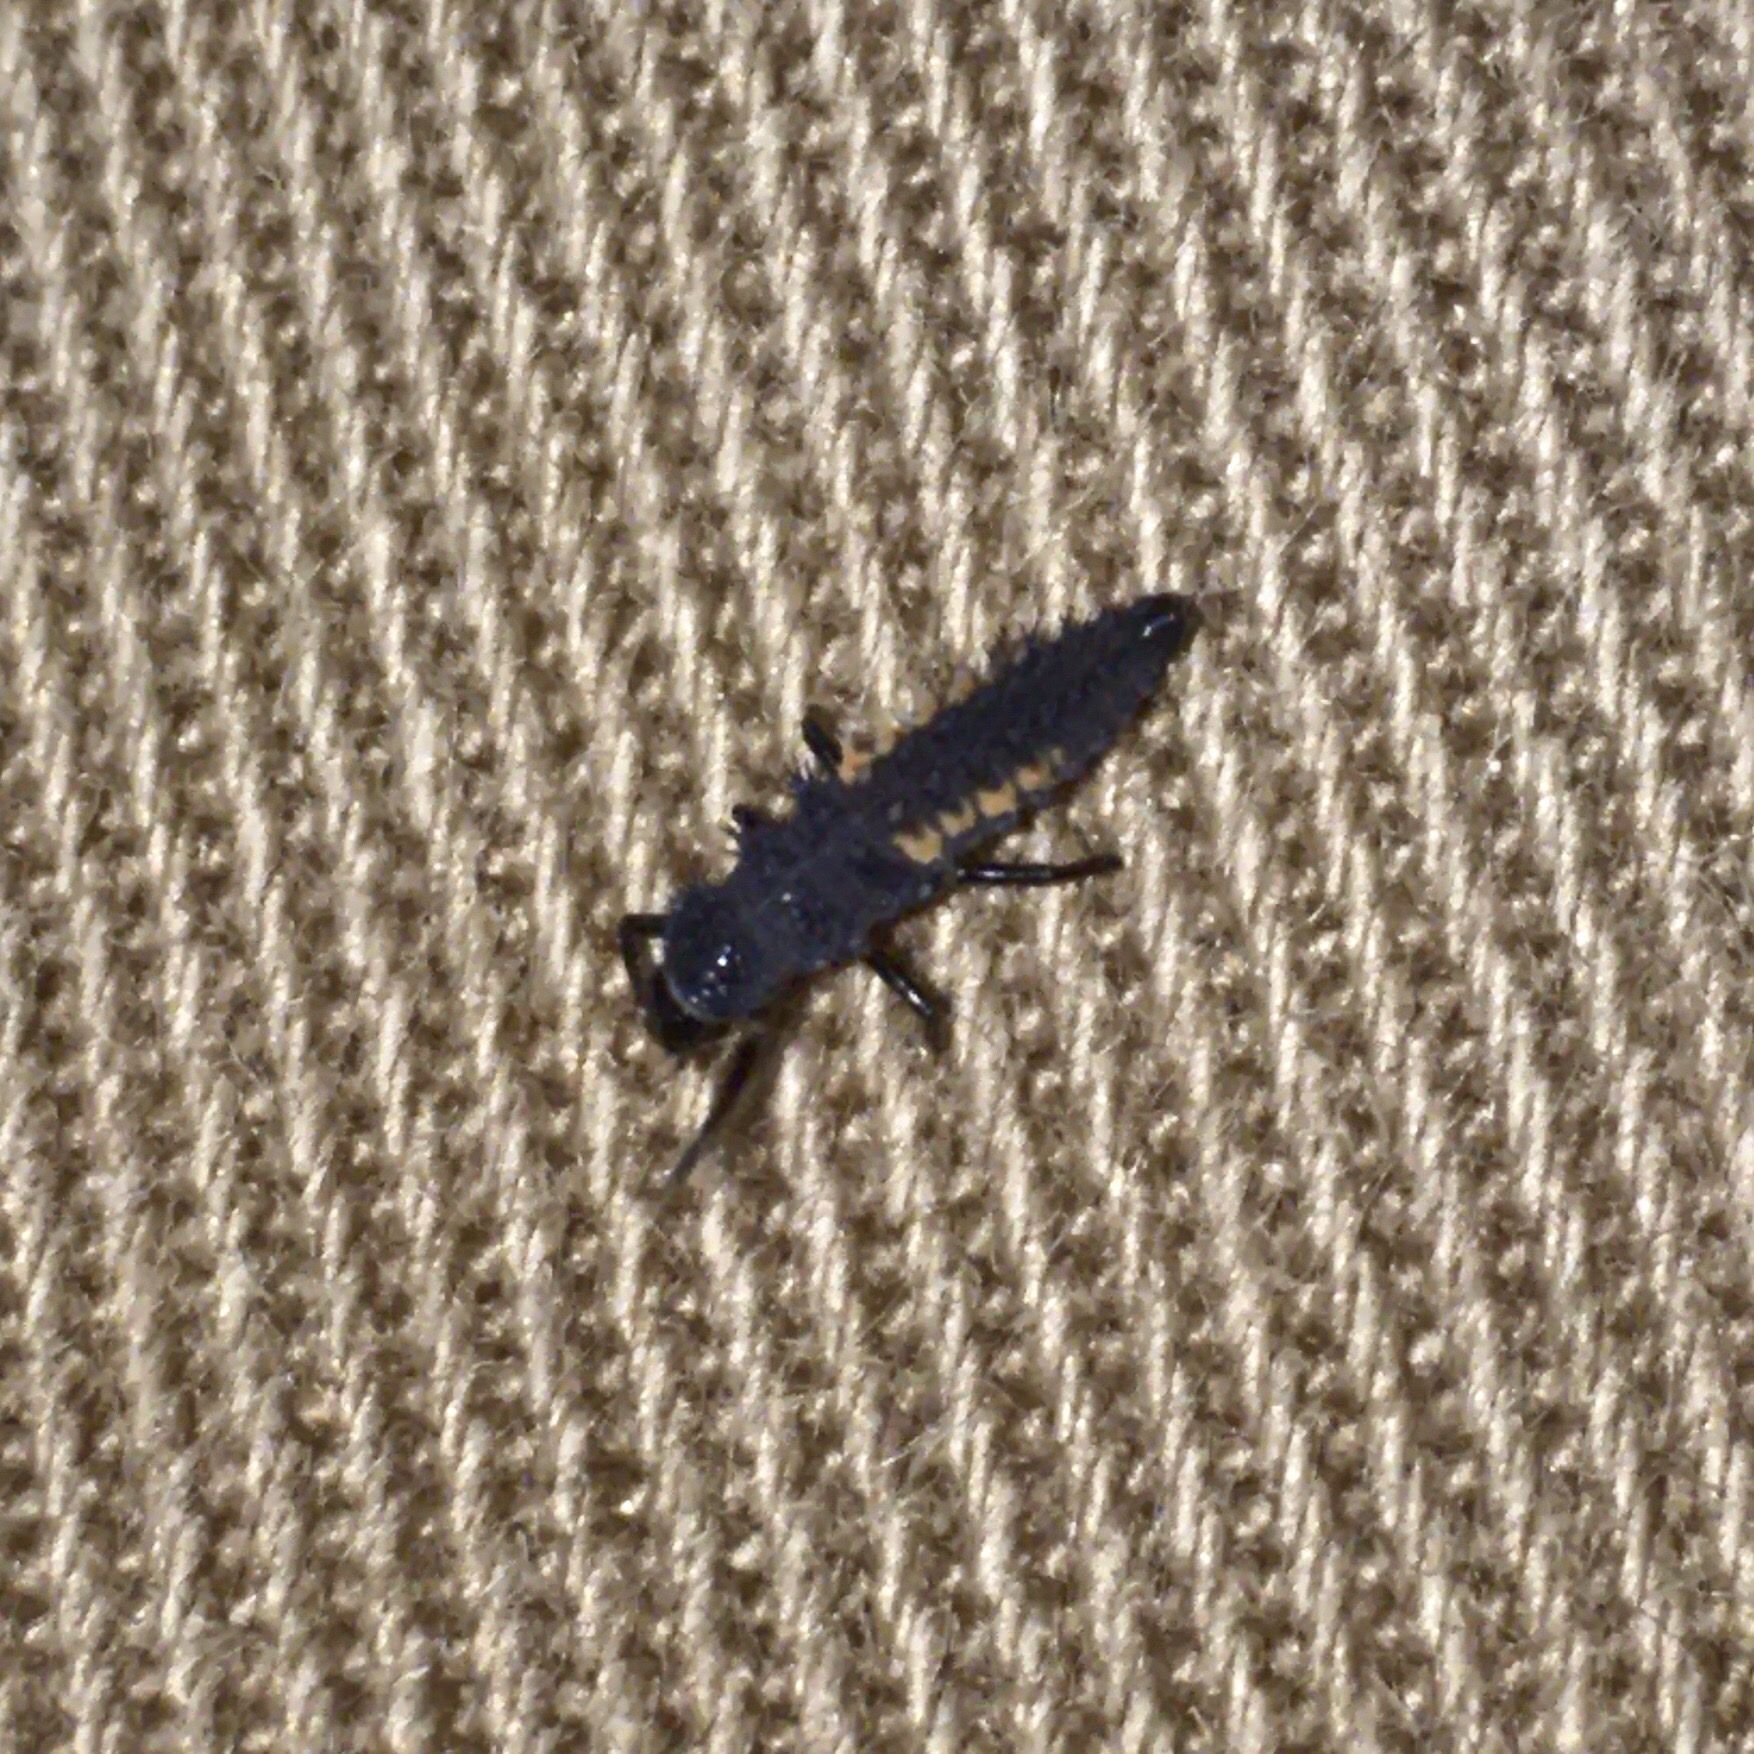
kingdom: Animalia
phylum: Arthropoda
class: Insecta
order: Coleoptera
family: Coccinellidae
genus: Harmonia
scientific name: Harmonia axyridis
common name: Harlequin ladybird
